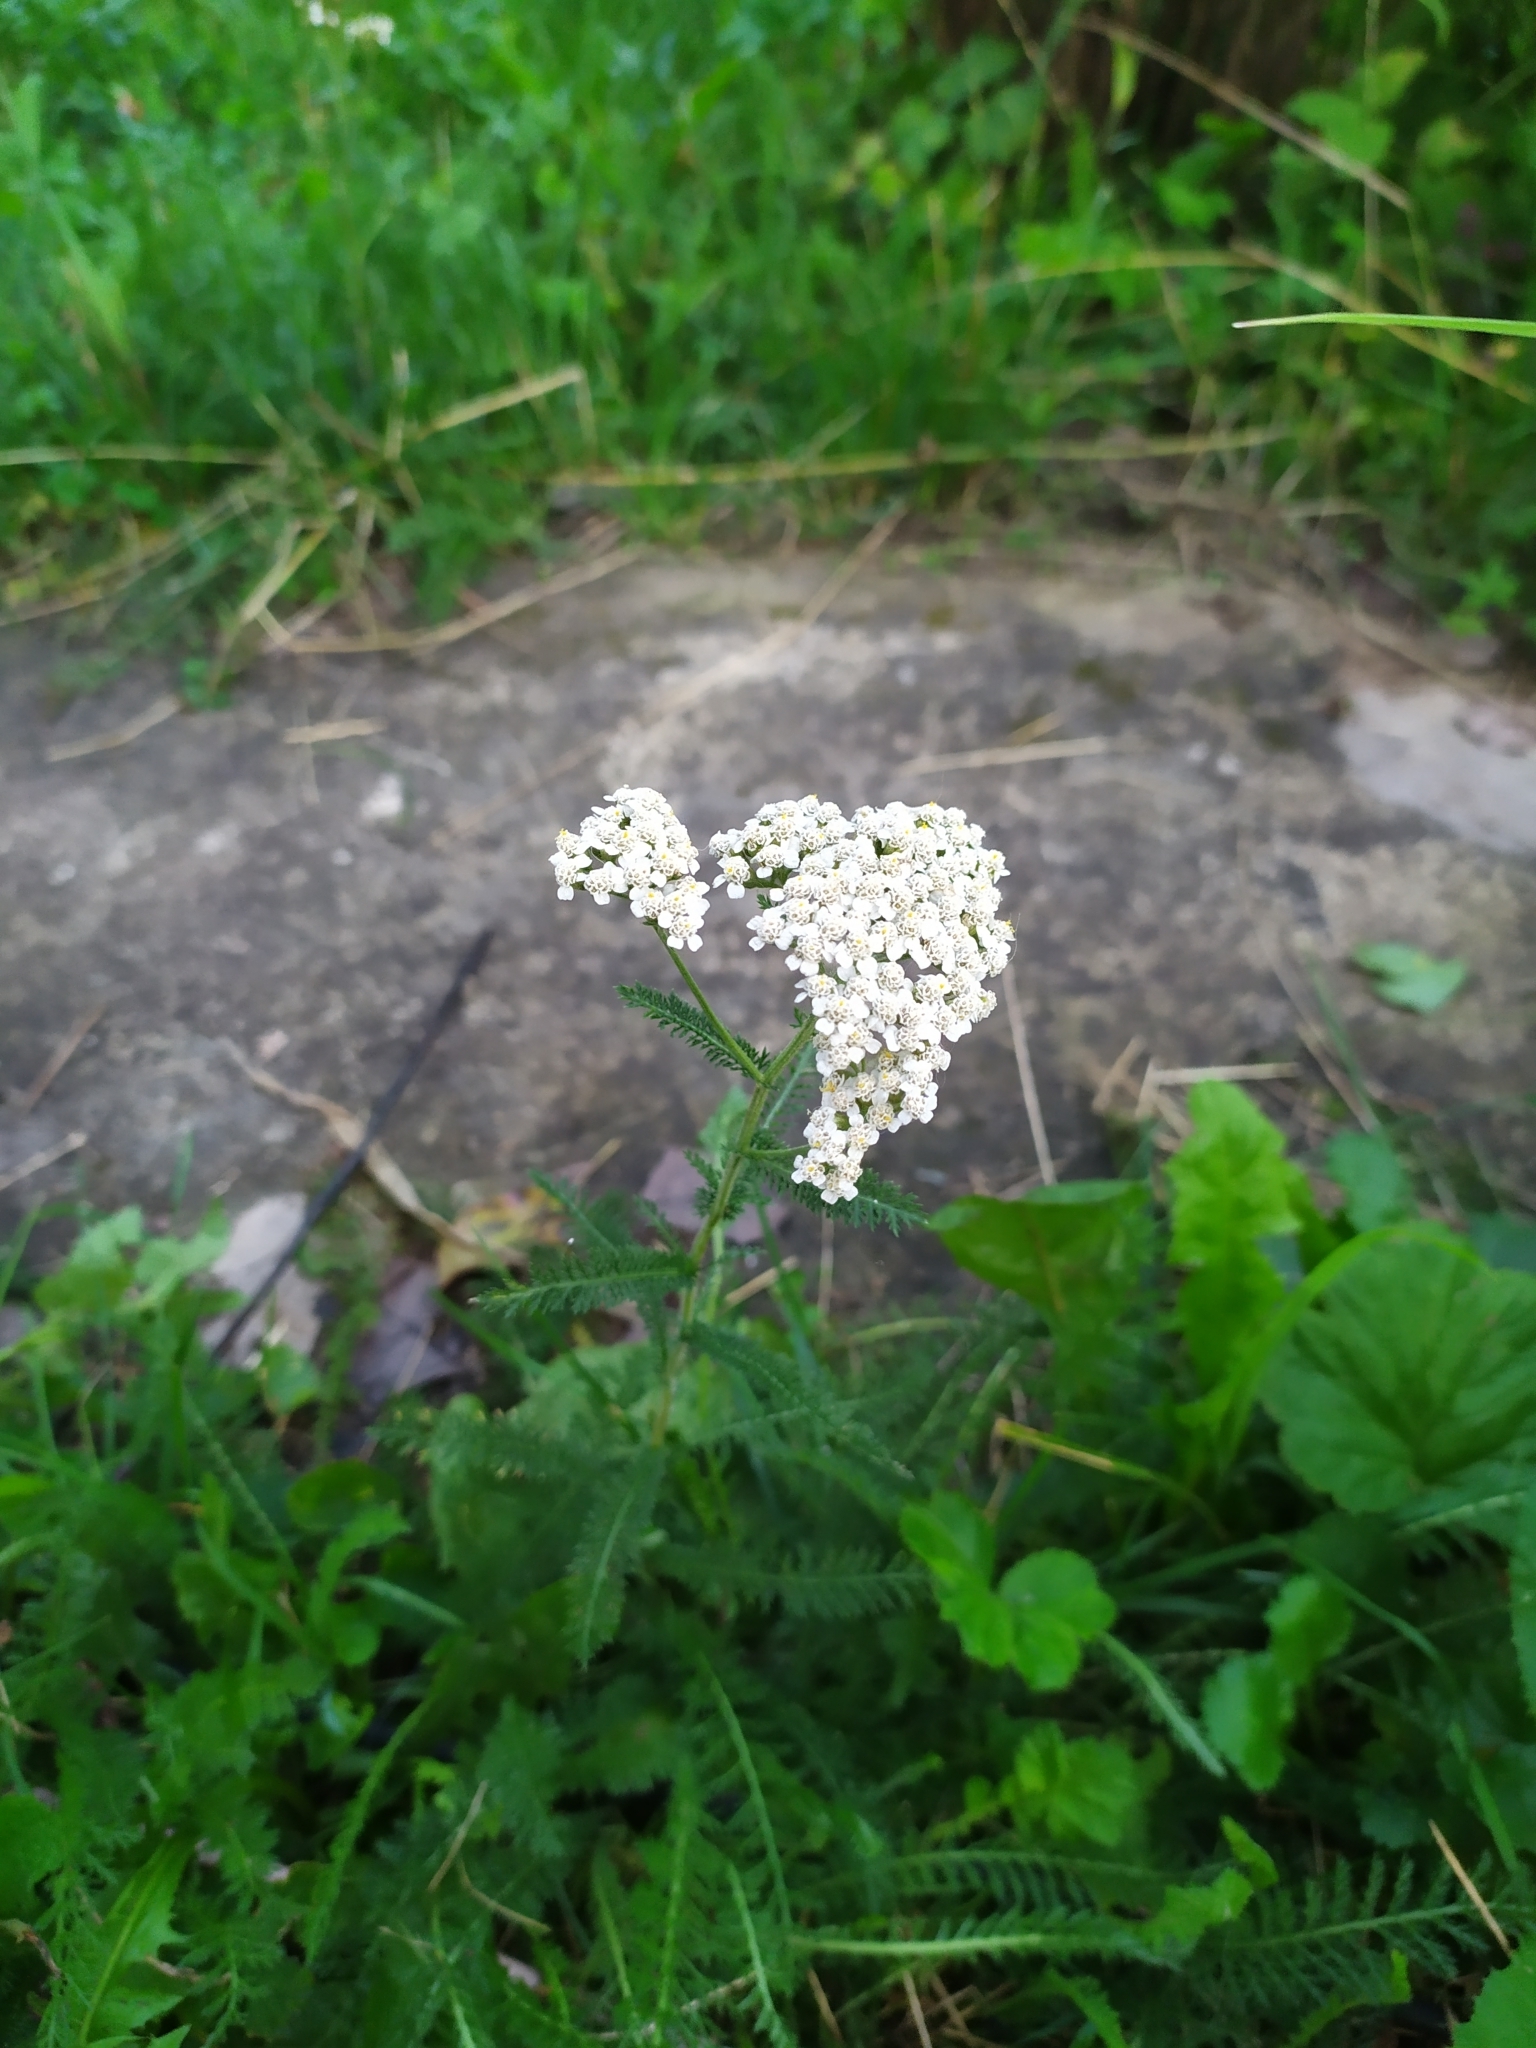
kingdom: Plantae
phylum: Tracheophyta
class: Magnoliopsida
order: Asterales
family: Asteraceae
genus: Achillea
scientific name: Achillea millefolium
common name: Yarrow
